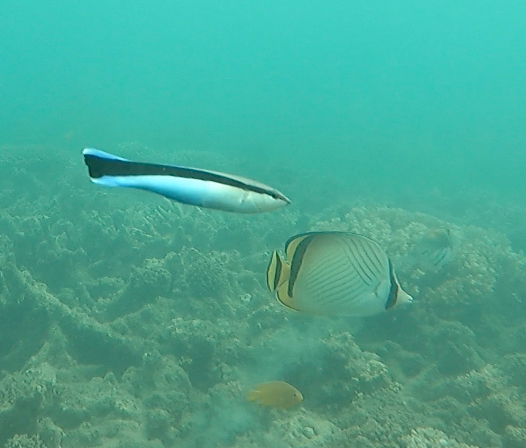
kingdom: Animalia
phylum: Chordata
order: Perciformes
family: Labridae
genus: Labroides
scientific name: Labroides dimidiatus
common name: Blue diesel wrasse
